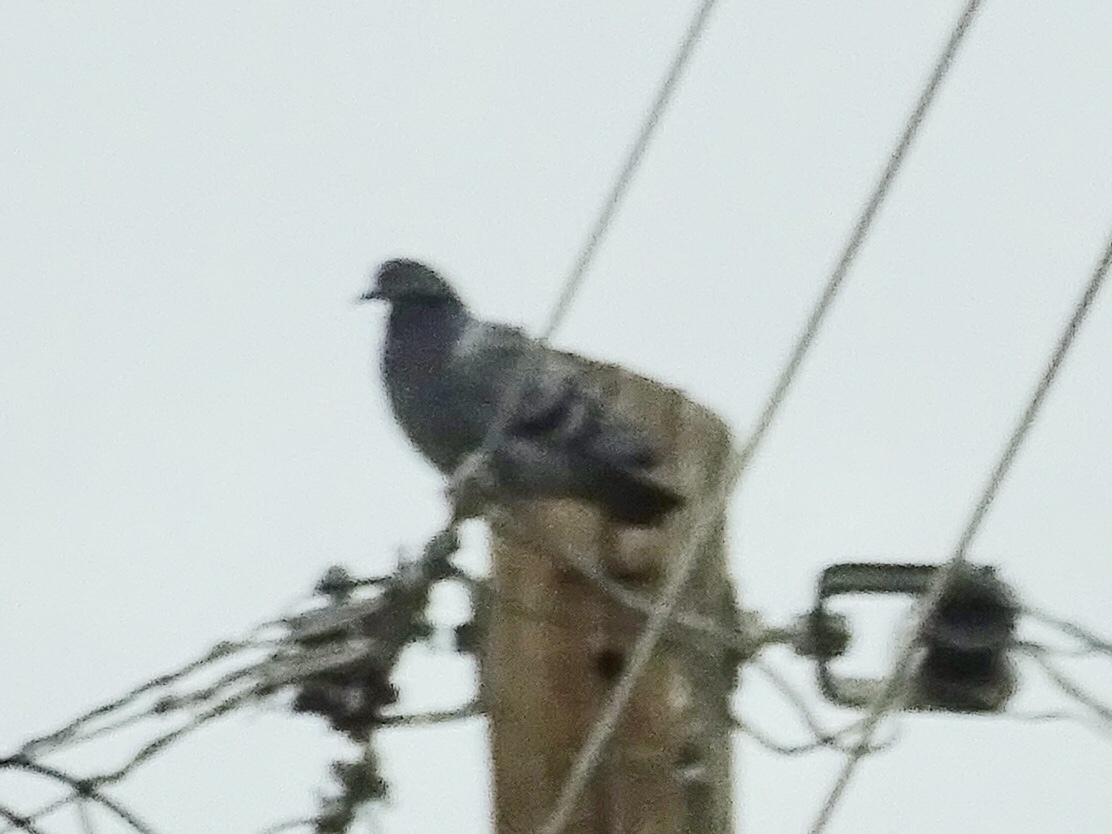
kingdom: Animalia
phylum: Chordata
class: Aves
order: Columbiformes
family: Columbidae
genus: Columba
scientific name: Columba livia
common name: Rock pigeon
